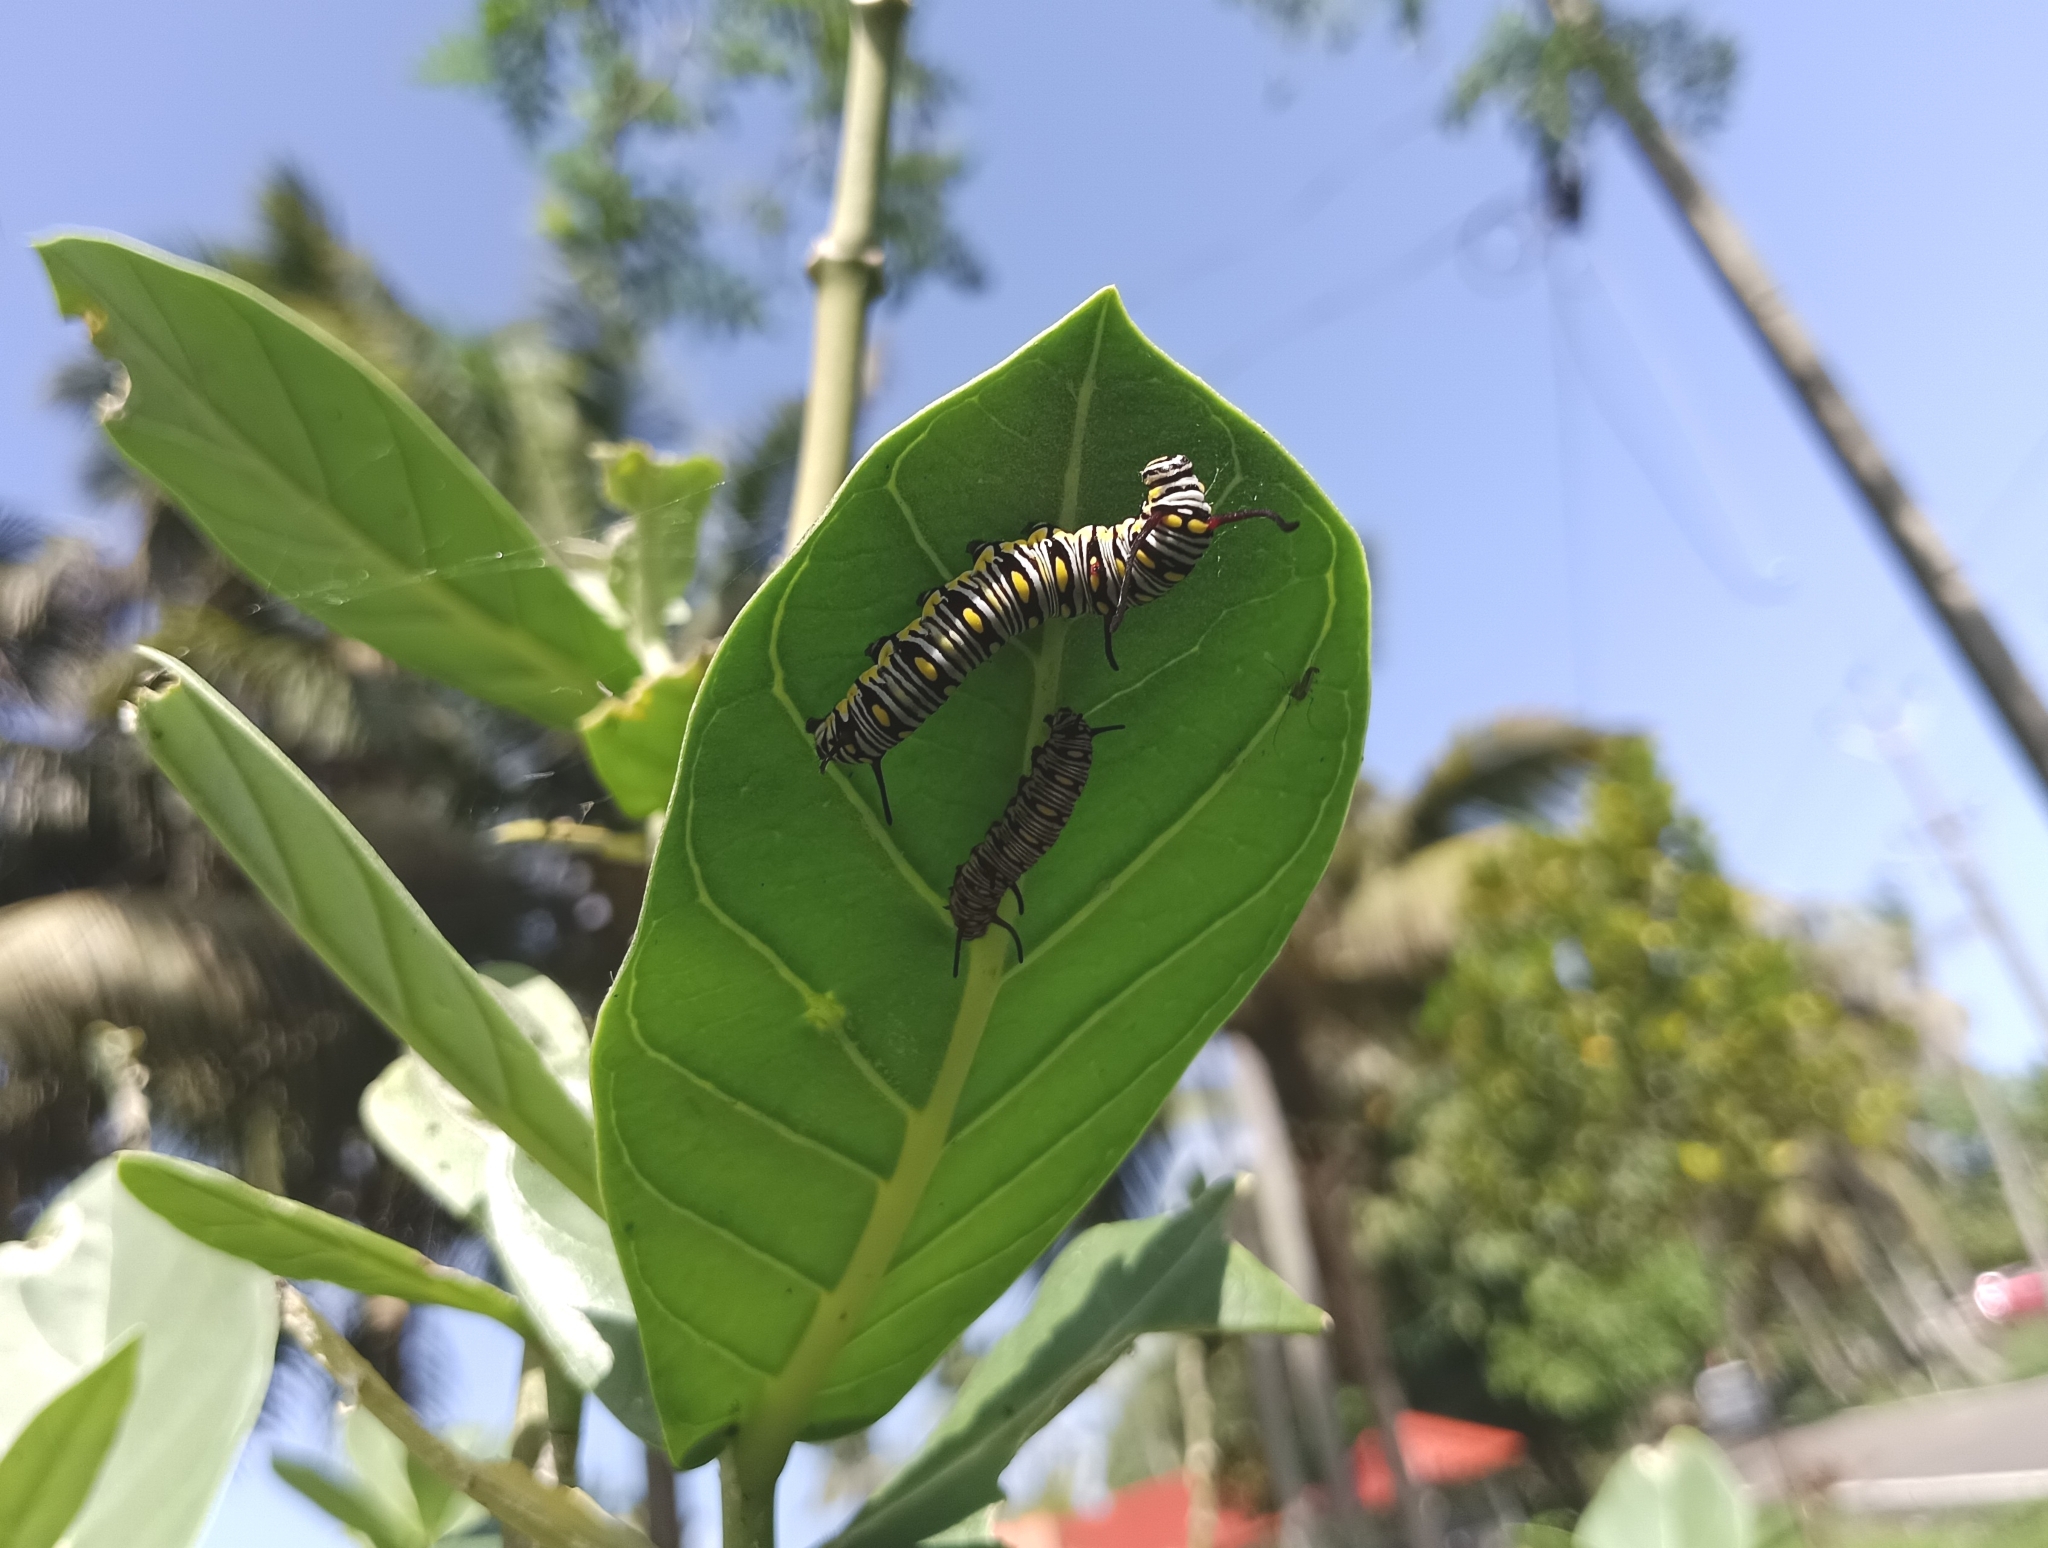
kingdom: Animalia
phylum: Arthropoda
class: Insecta
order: Lepidoptera
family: Nymphalidae
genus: Danaus
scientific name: Danaus chrysippus
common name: Plain tiger
